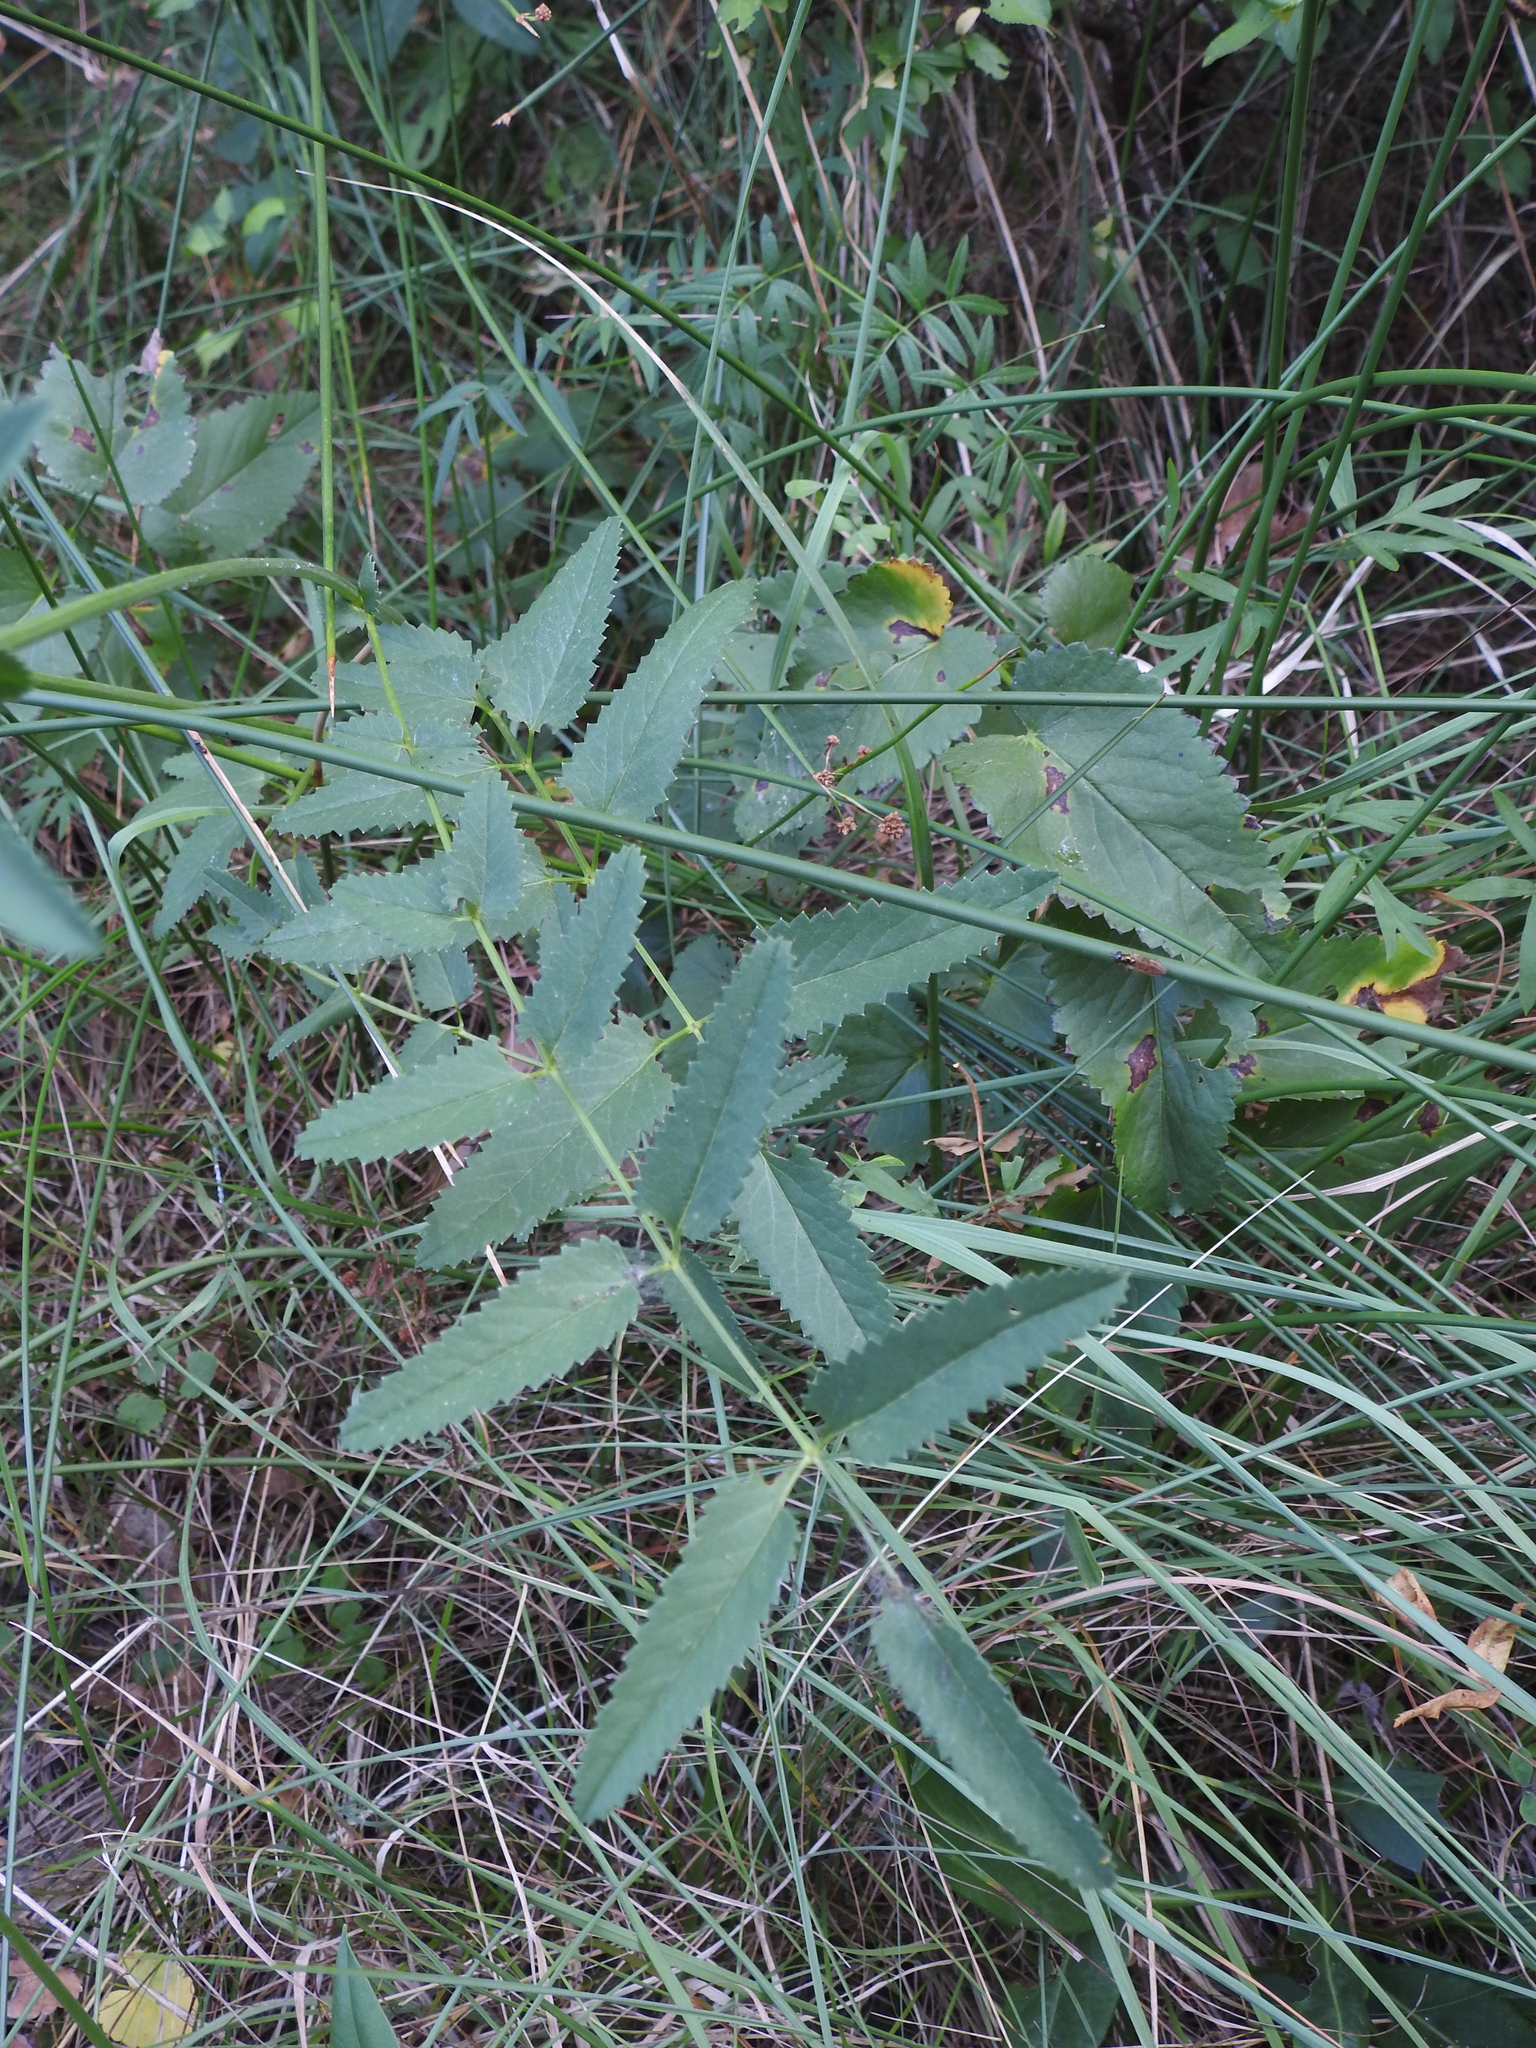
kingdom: Plantae
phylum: Tracheophyta
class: Magnoliopsida
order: Rosales
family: Rosaceae
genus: Sanguisorba
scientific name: Sanguisorba officinalis
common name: Great burnet
